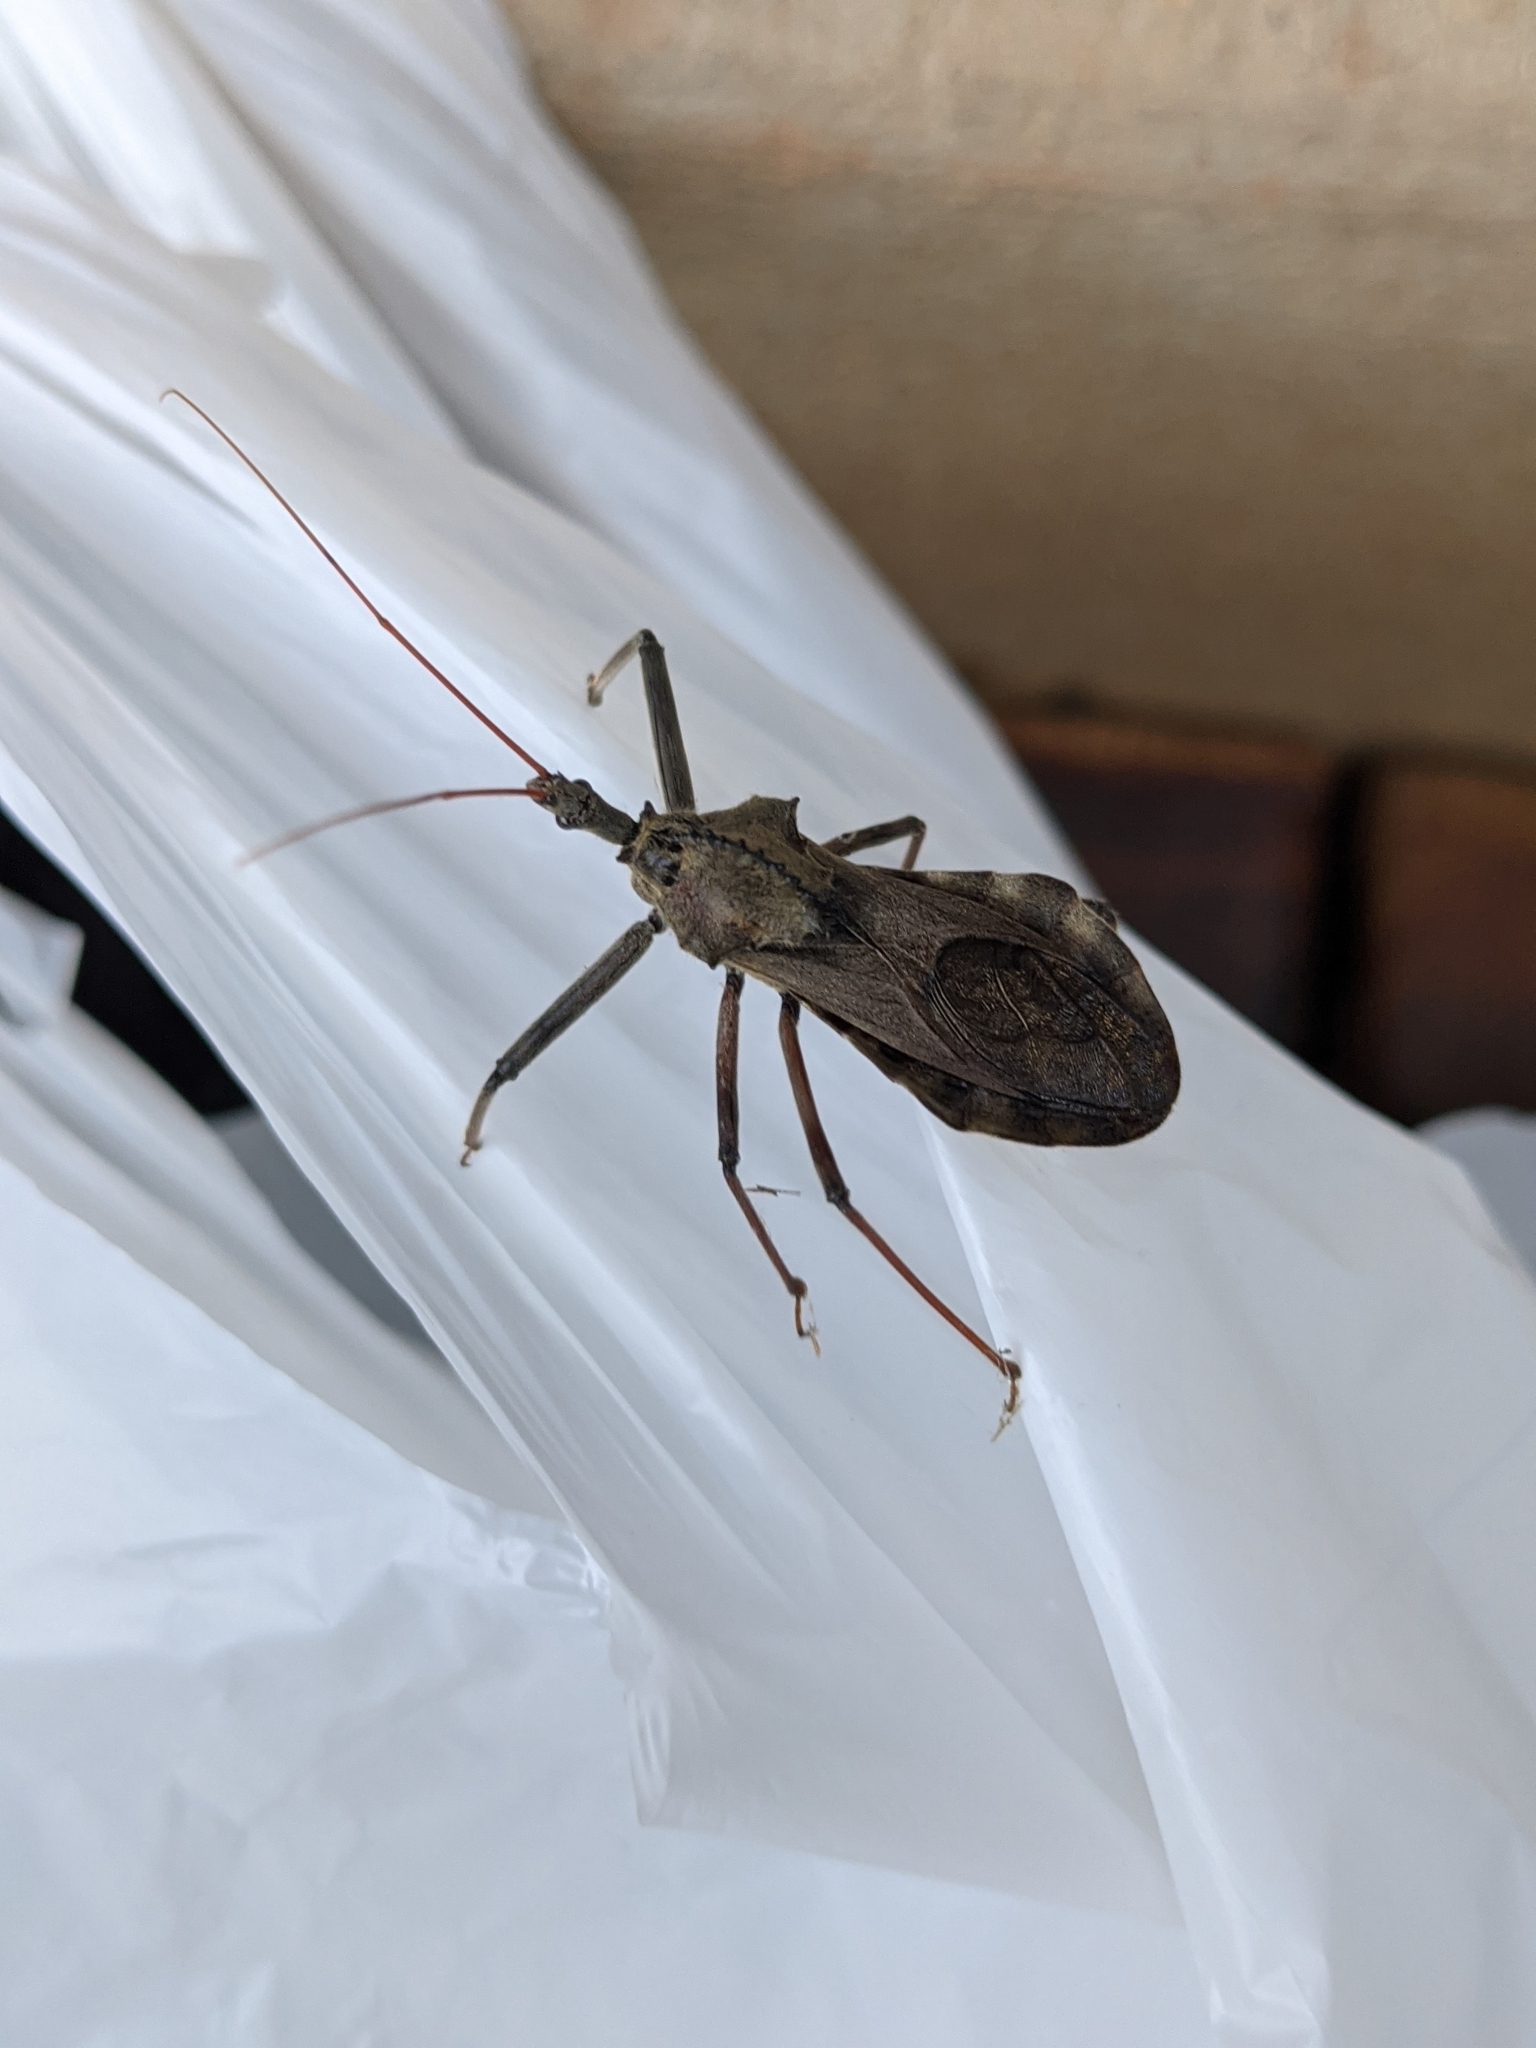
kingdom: Animalia
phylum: Arthropoda
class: Insecta
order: Hemiptera
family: Reduviidae
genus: Arilus
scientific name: Arilus cristatus
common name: North american wheel bug
